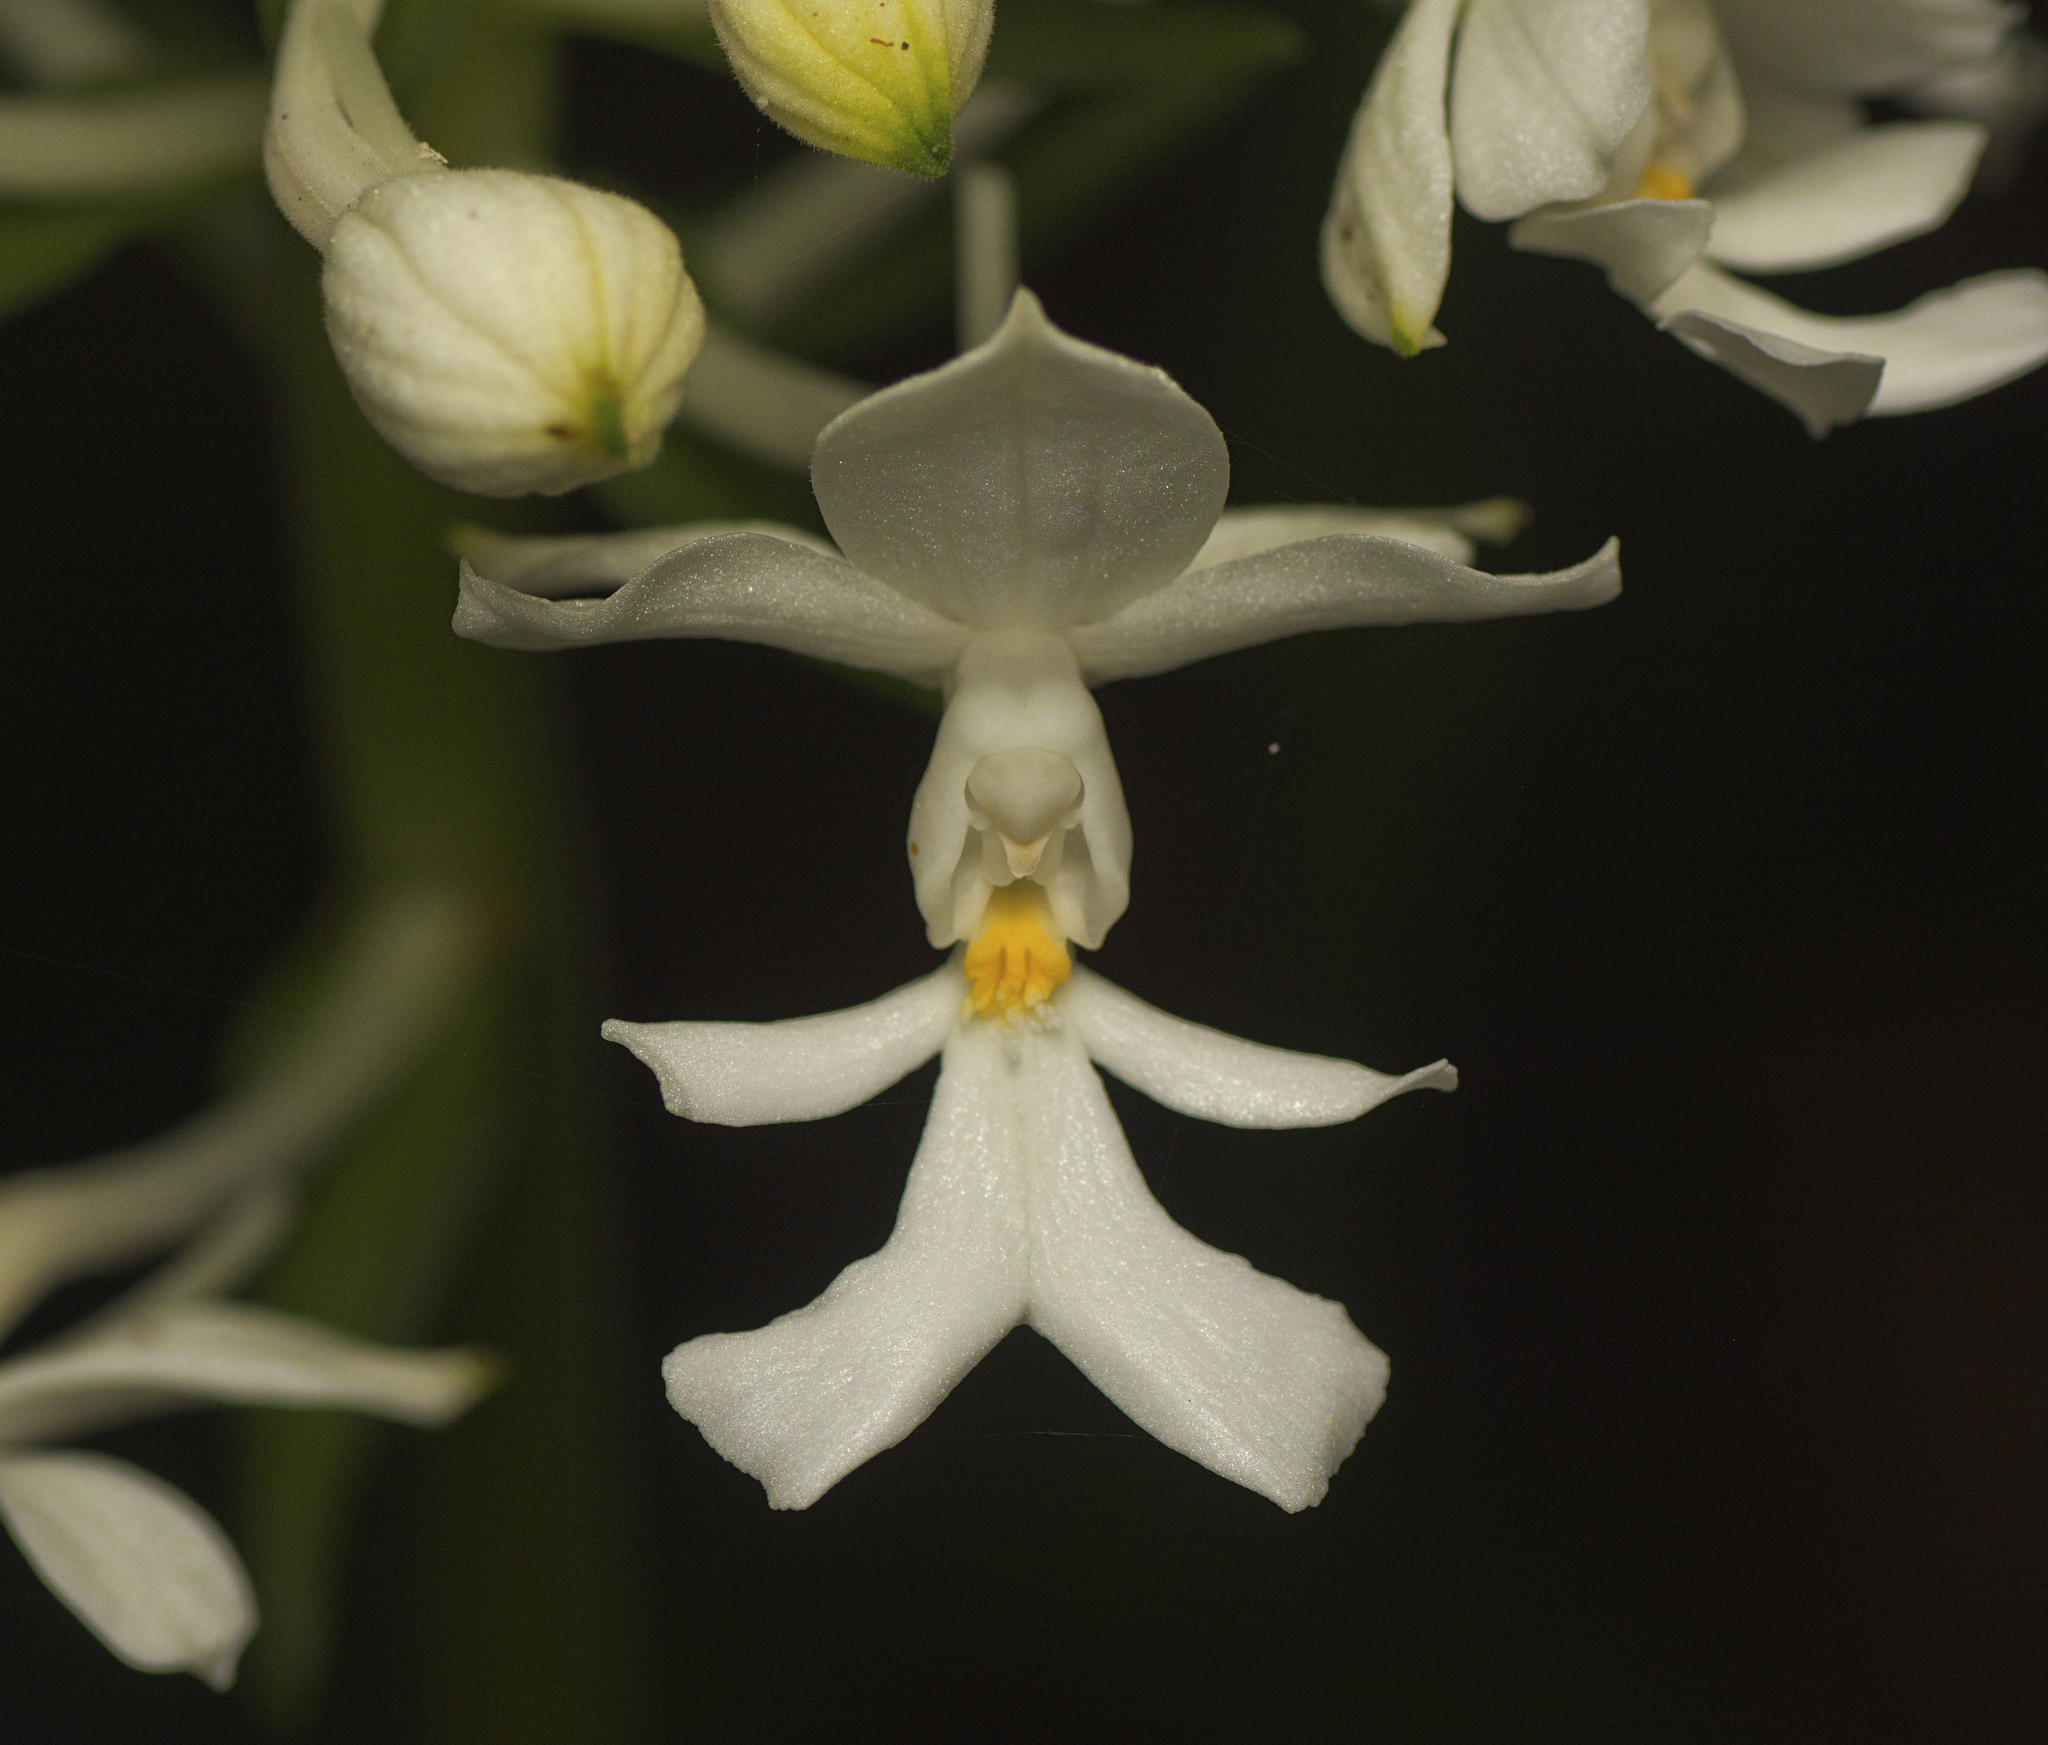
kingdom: Plantae
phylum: Tracheophyta
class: Liliopsida
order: Asparagales
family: Orchidaceae
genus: Calanthe
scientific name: Calanthe triplicata
